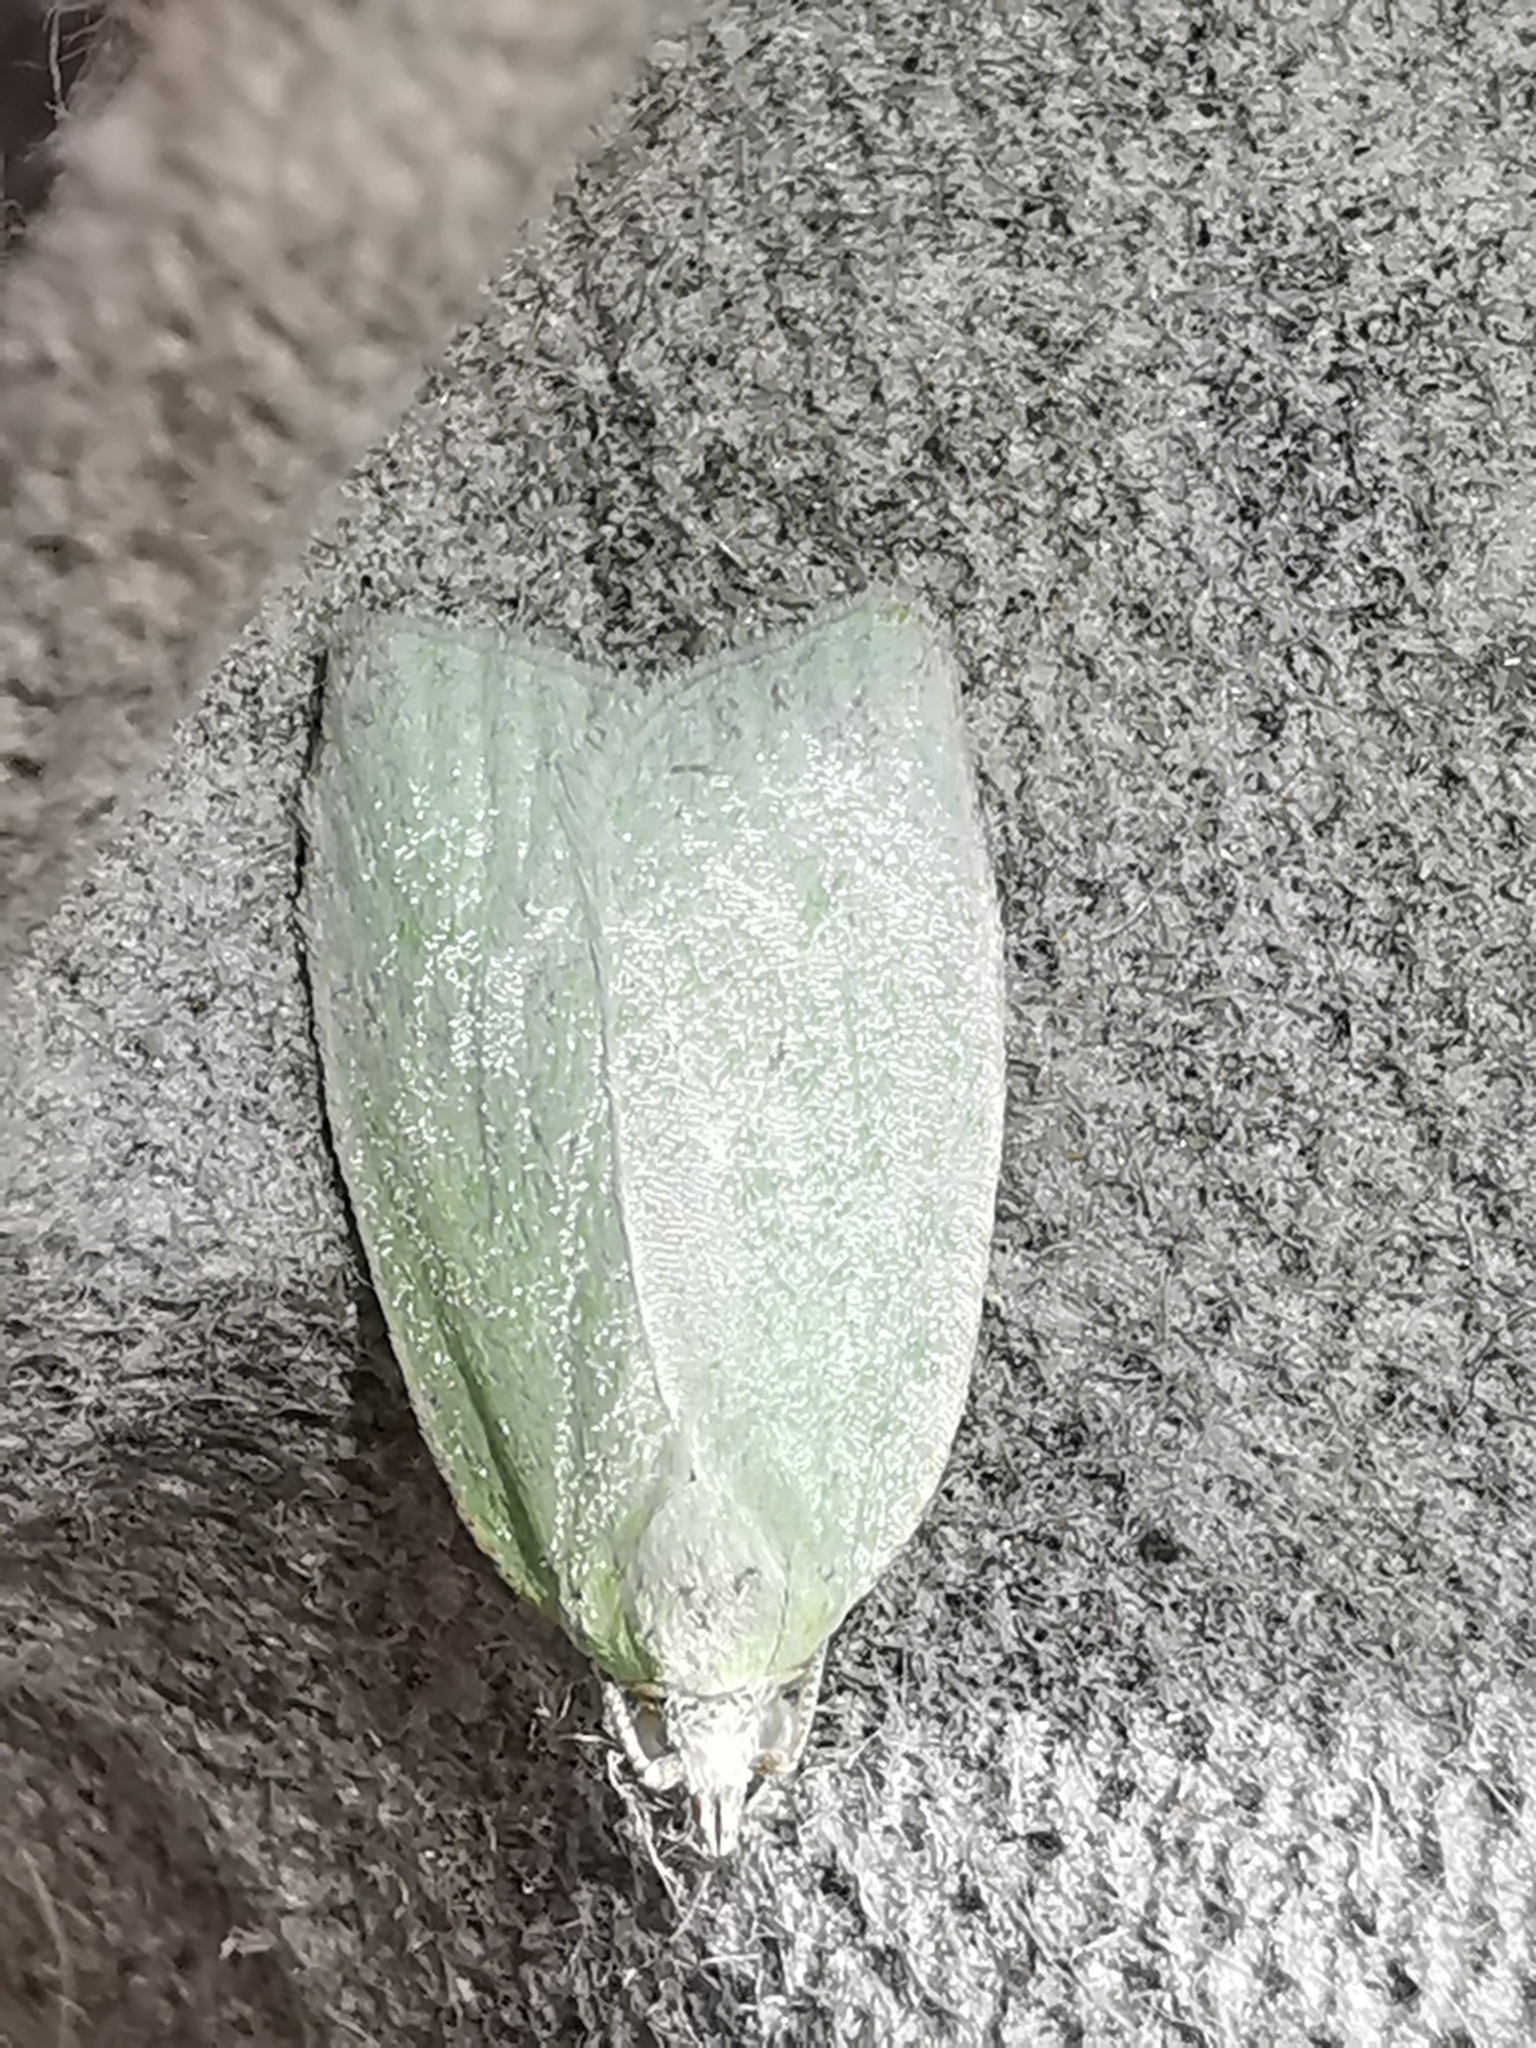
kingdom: Animalia
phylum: Arthropoda
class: Insecta
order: Lepidoptera
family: Tortricidae
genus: Tortrix
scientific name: Tortrix viridana
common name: Green oak tortrix
